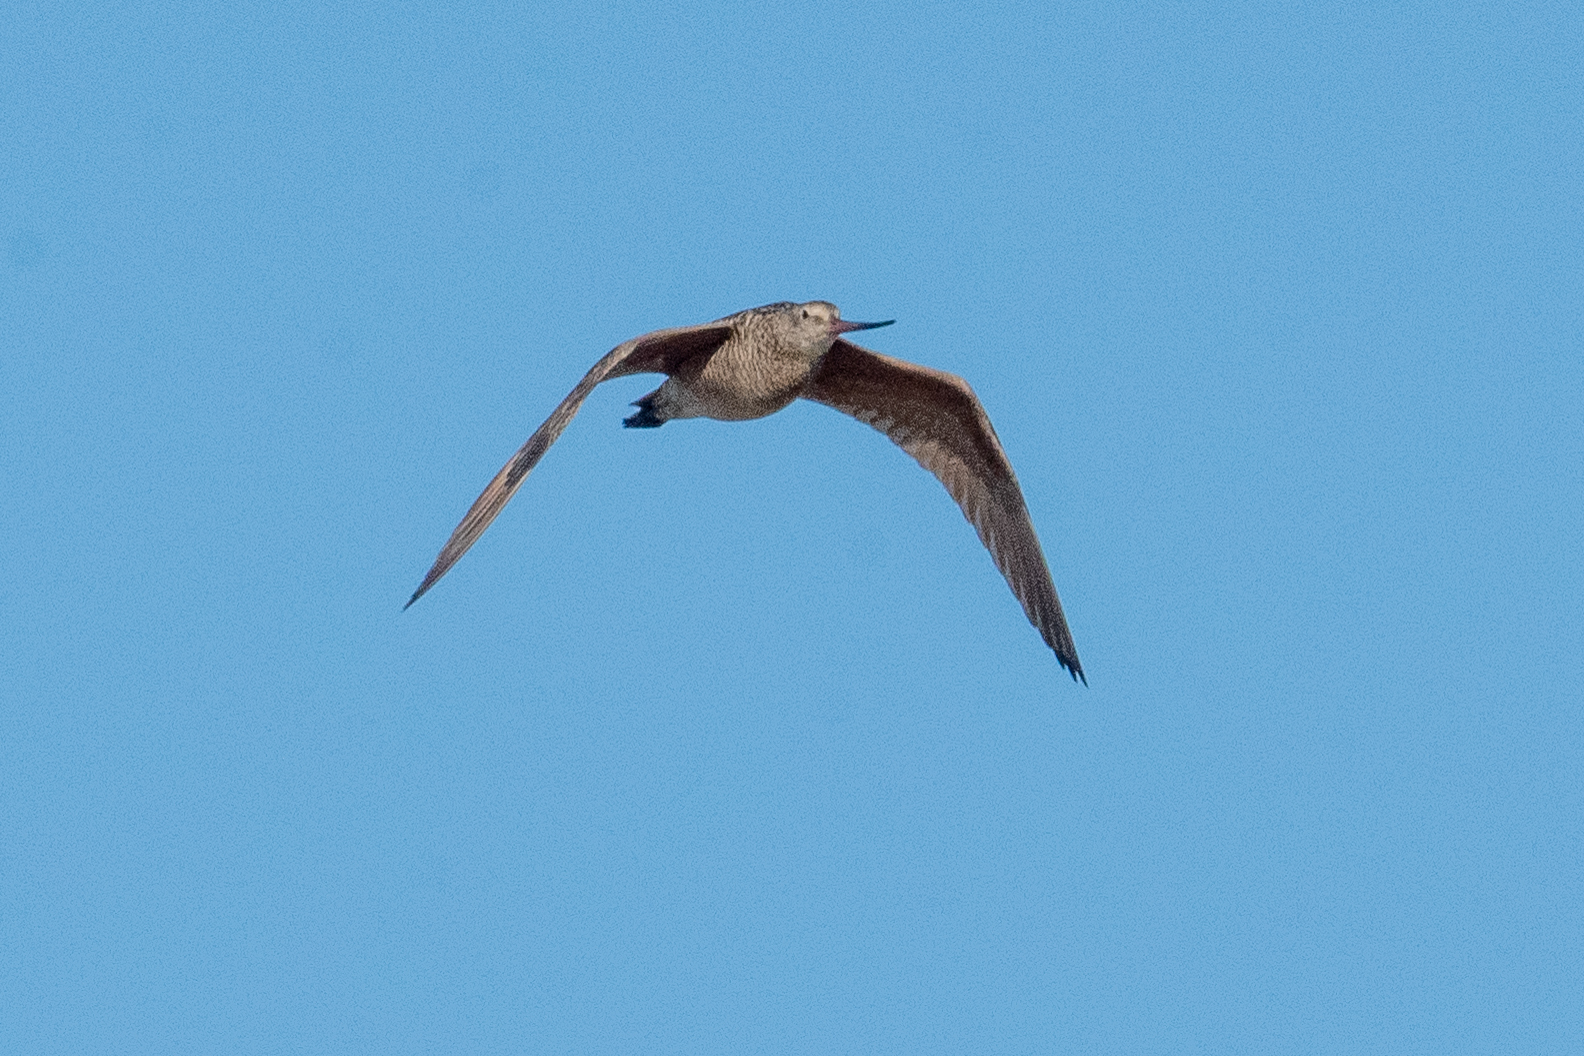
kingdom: Animalia
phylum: Chordata
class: Aves
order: Charadriiformes
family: Scolopacidae
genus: Limosa
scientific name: Limosa fedoa
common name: Marbled godwit
